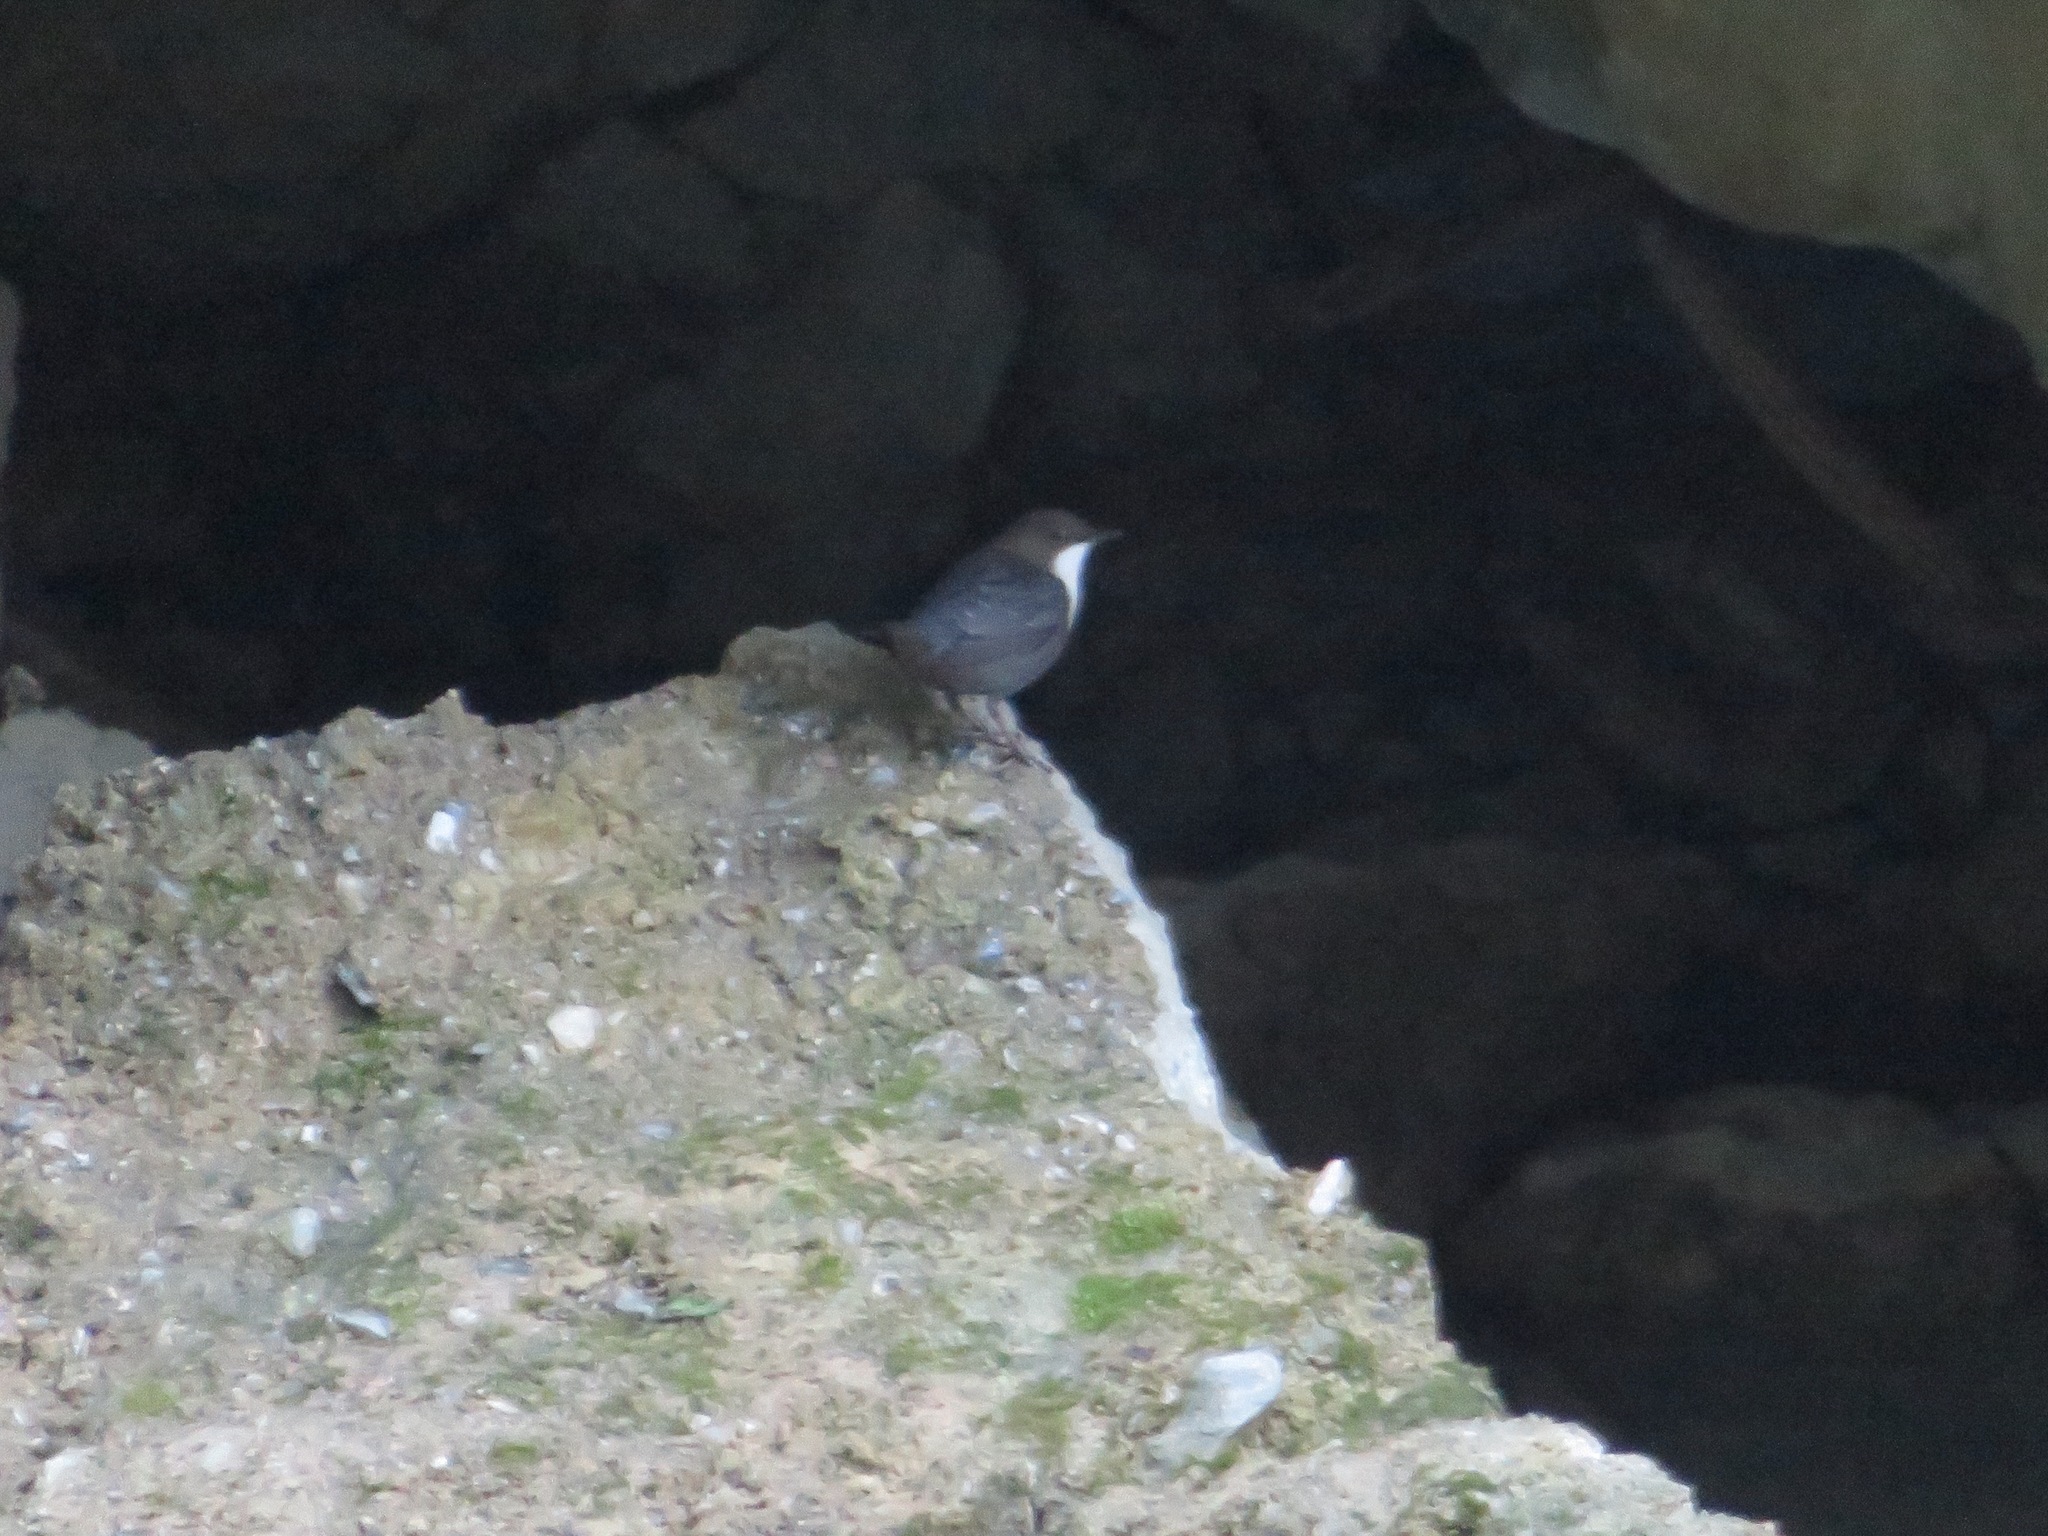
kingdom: Animalia
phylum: Chordata
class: Aves
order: Passeriformes
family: Cinclidae
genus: Cinclus
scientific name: Cinclus cinclus
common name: White-throated dipper
